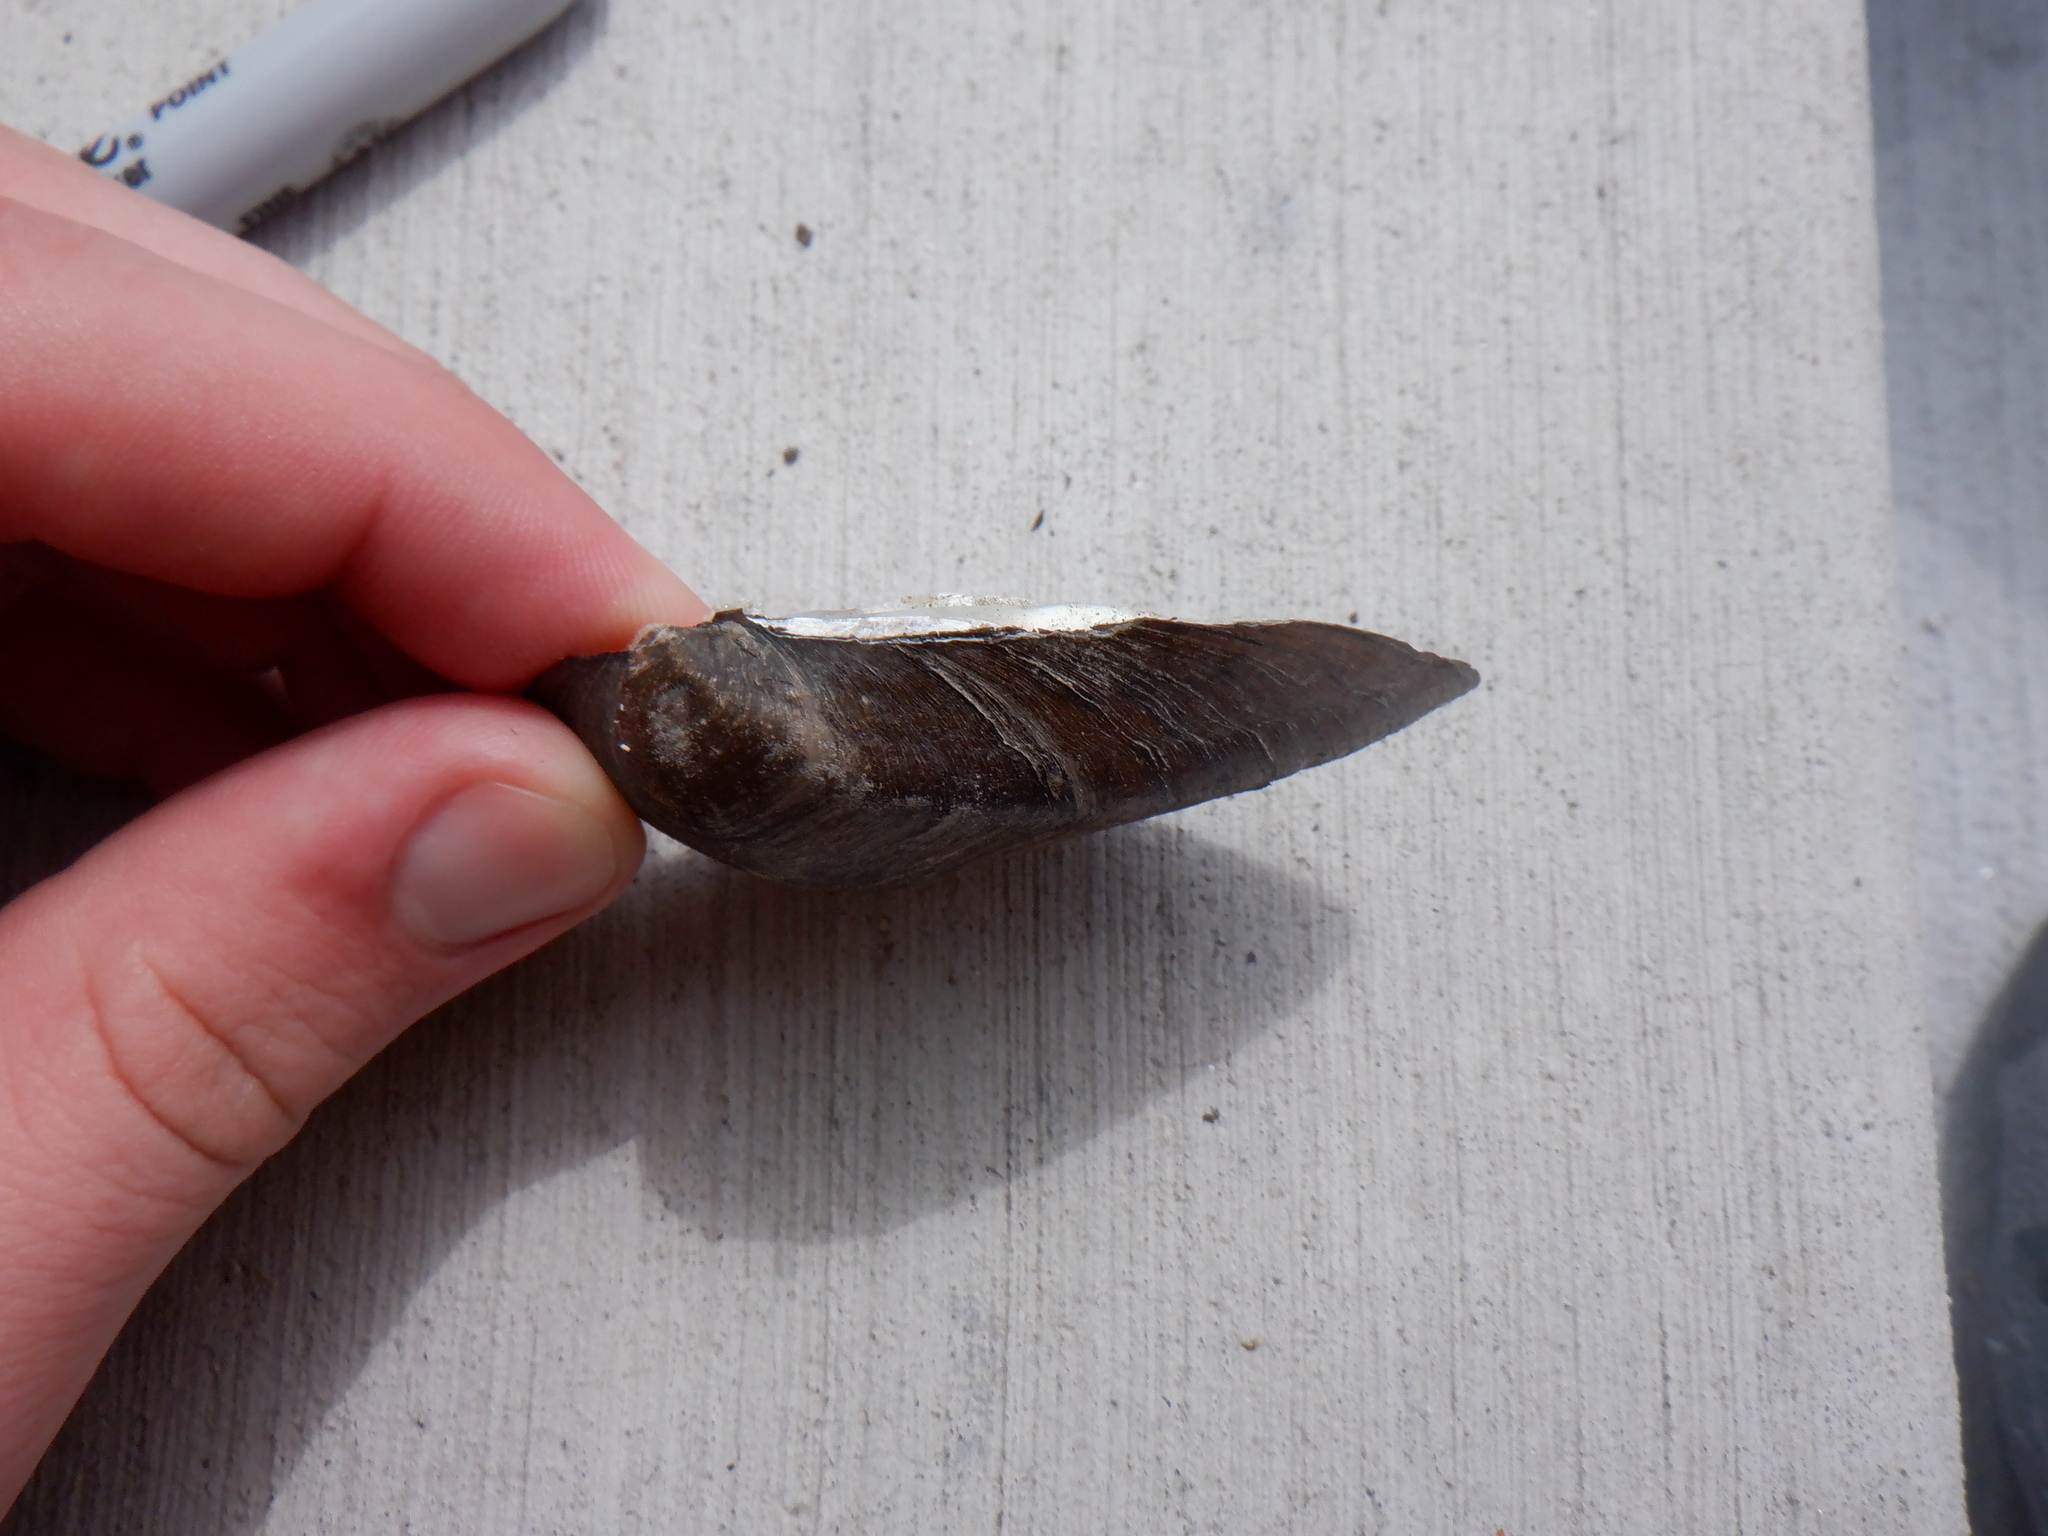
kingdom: Animalia
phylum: Mollusca
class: Bivalvia
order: Unionida
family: Unionidae
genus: Fusconaia
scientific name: Fusconaia flava
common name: Wabash pigtoe
